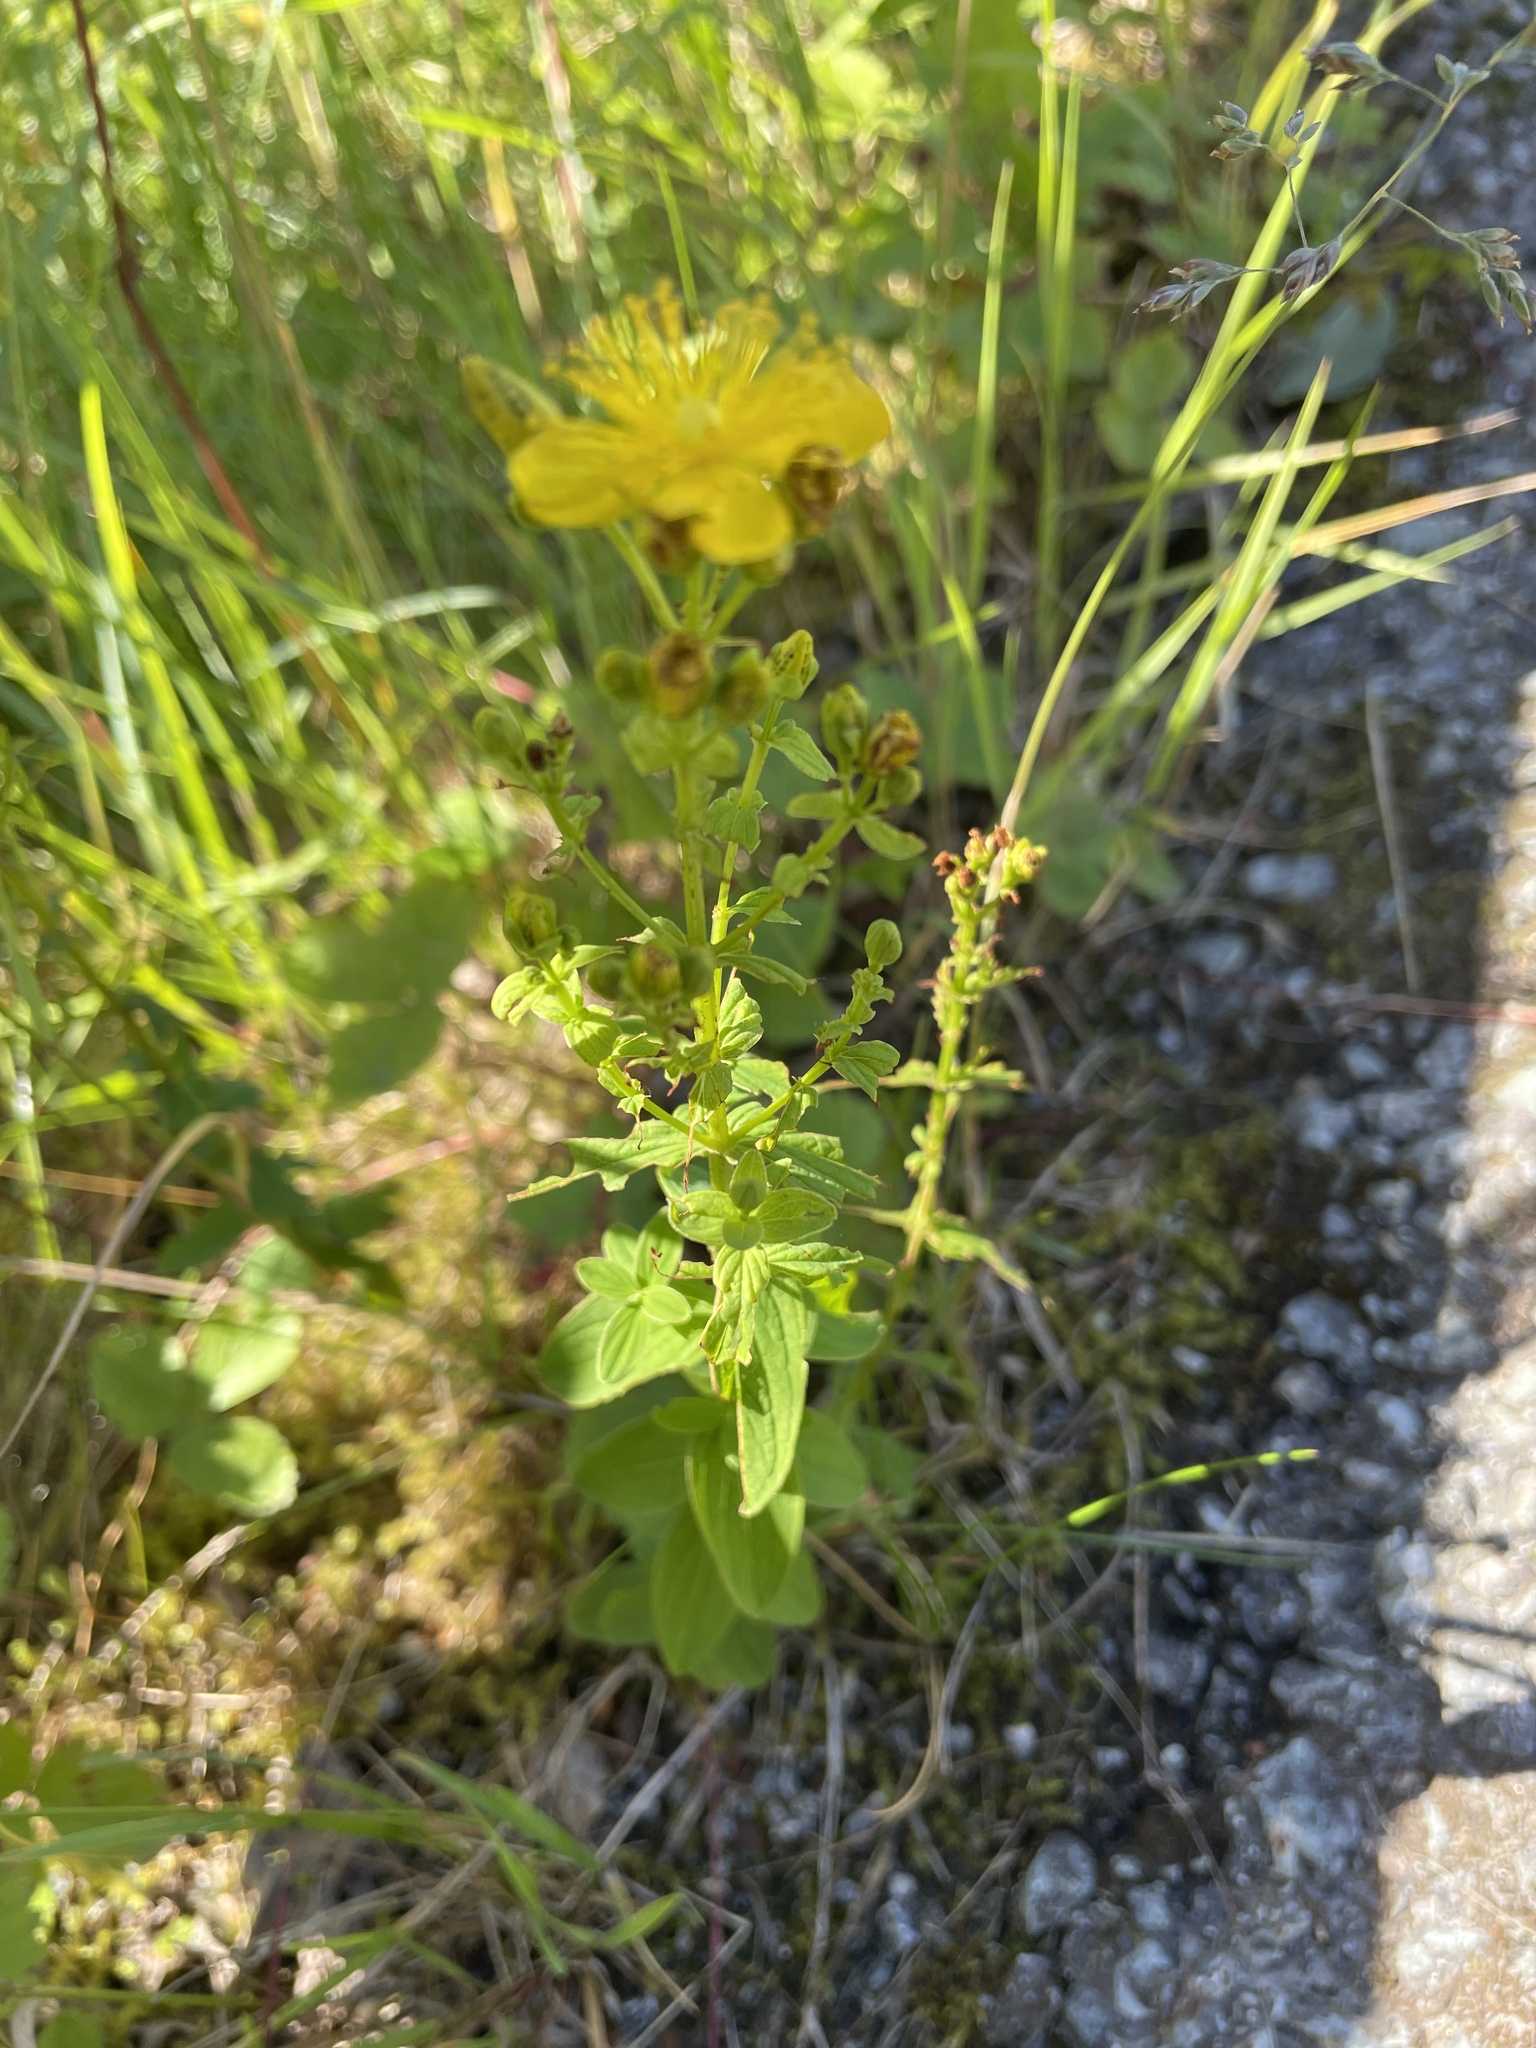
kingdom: Plantae
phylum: Tracheophyta
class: Magnoliopsida
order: Malpighiales
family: Hypericaceae
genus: Hypericum
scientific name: Hypericum maculatum
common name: Imperforate st. john's-wort
